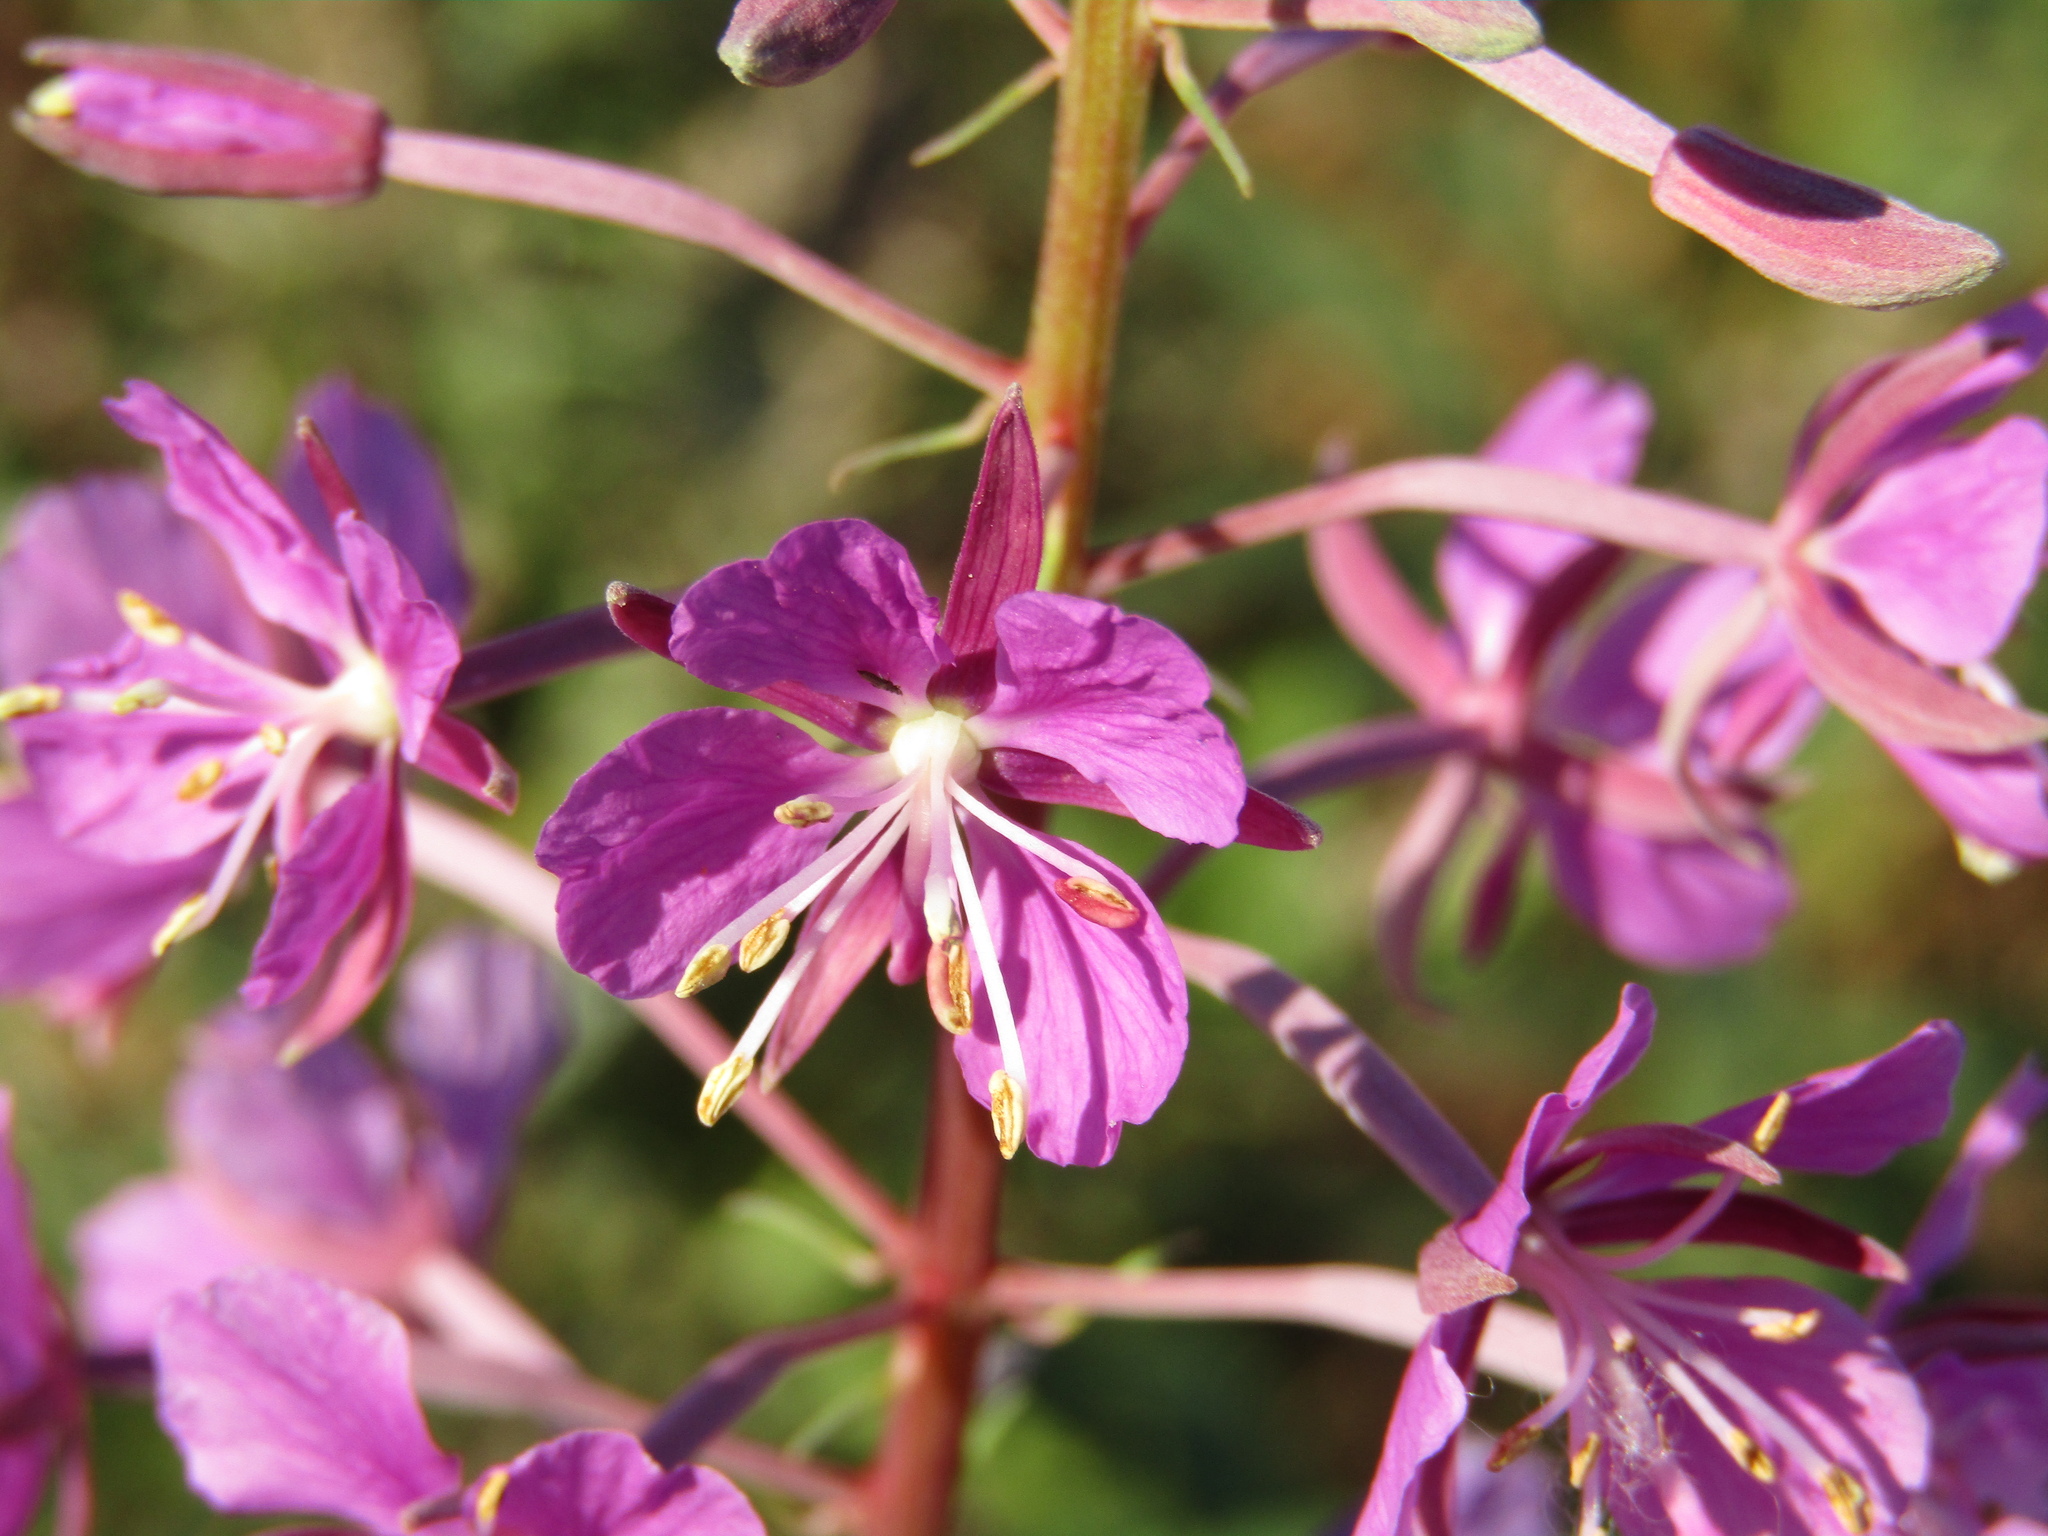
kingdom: Plantae
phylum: Tracheophyta
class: Magnoliopsida
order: Myrtales
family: Onagraceae
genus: Chamaenerion
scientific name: Chamaenerion angustifolium
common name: Fireweed
